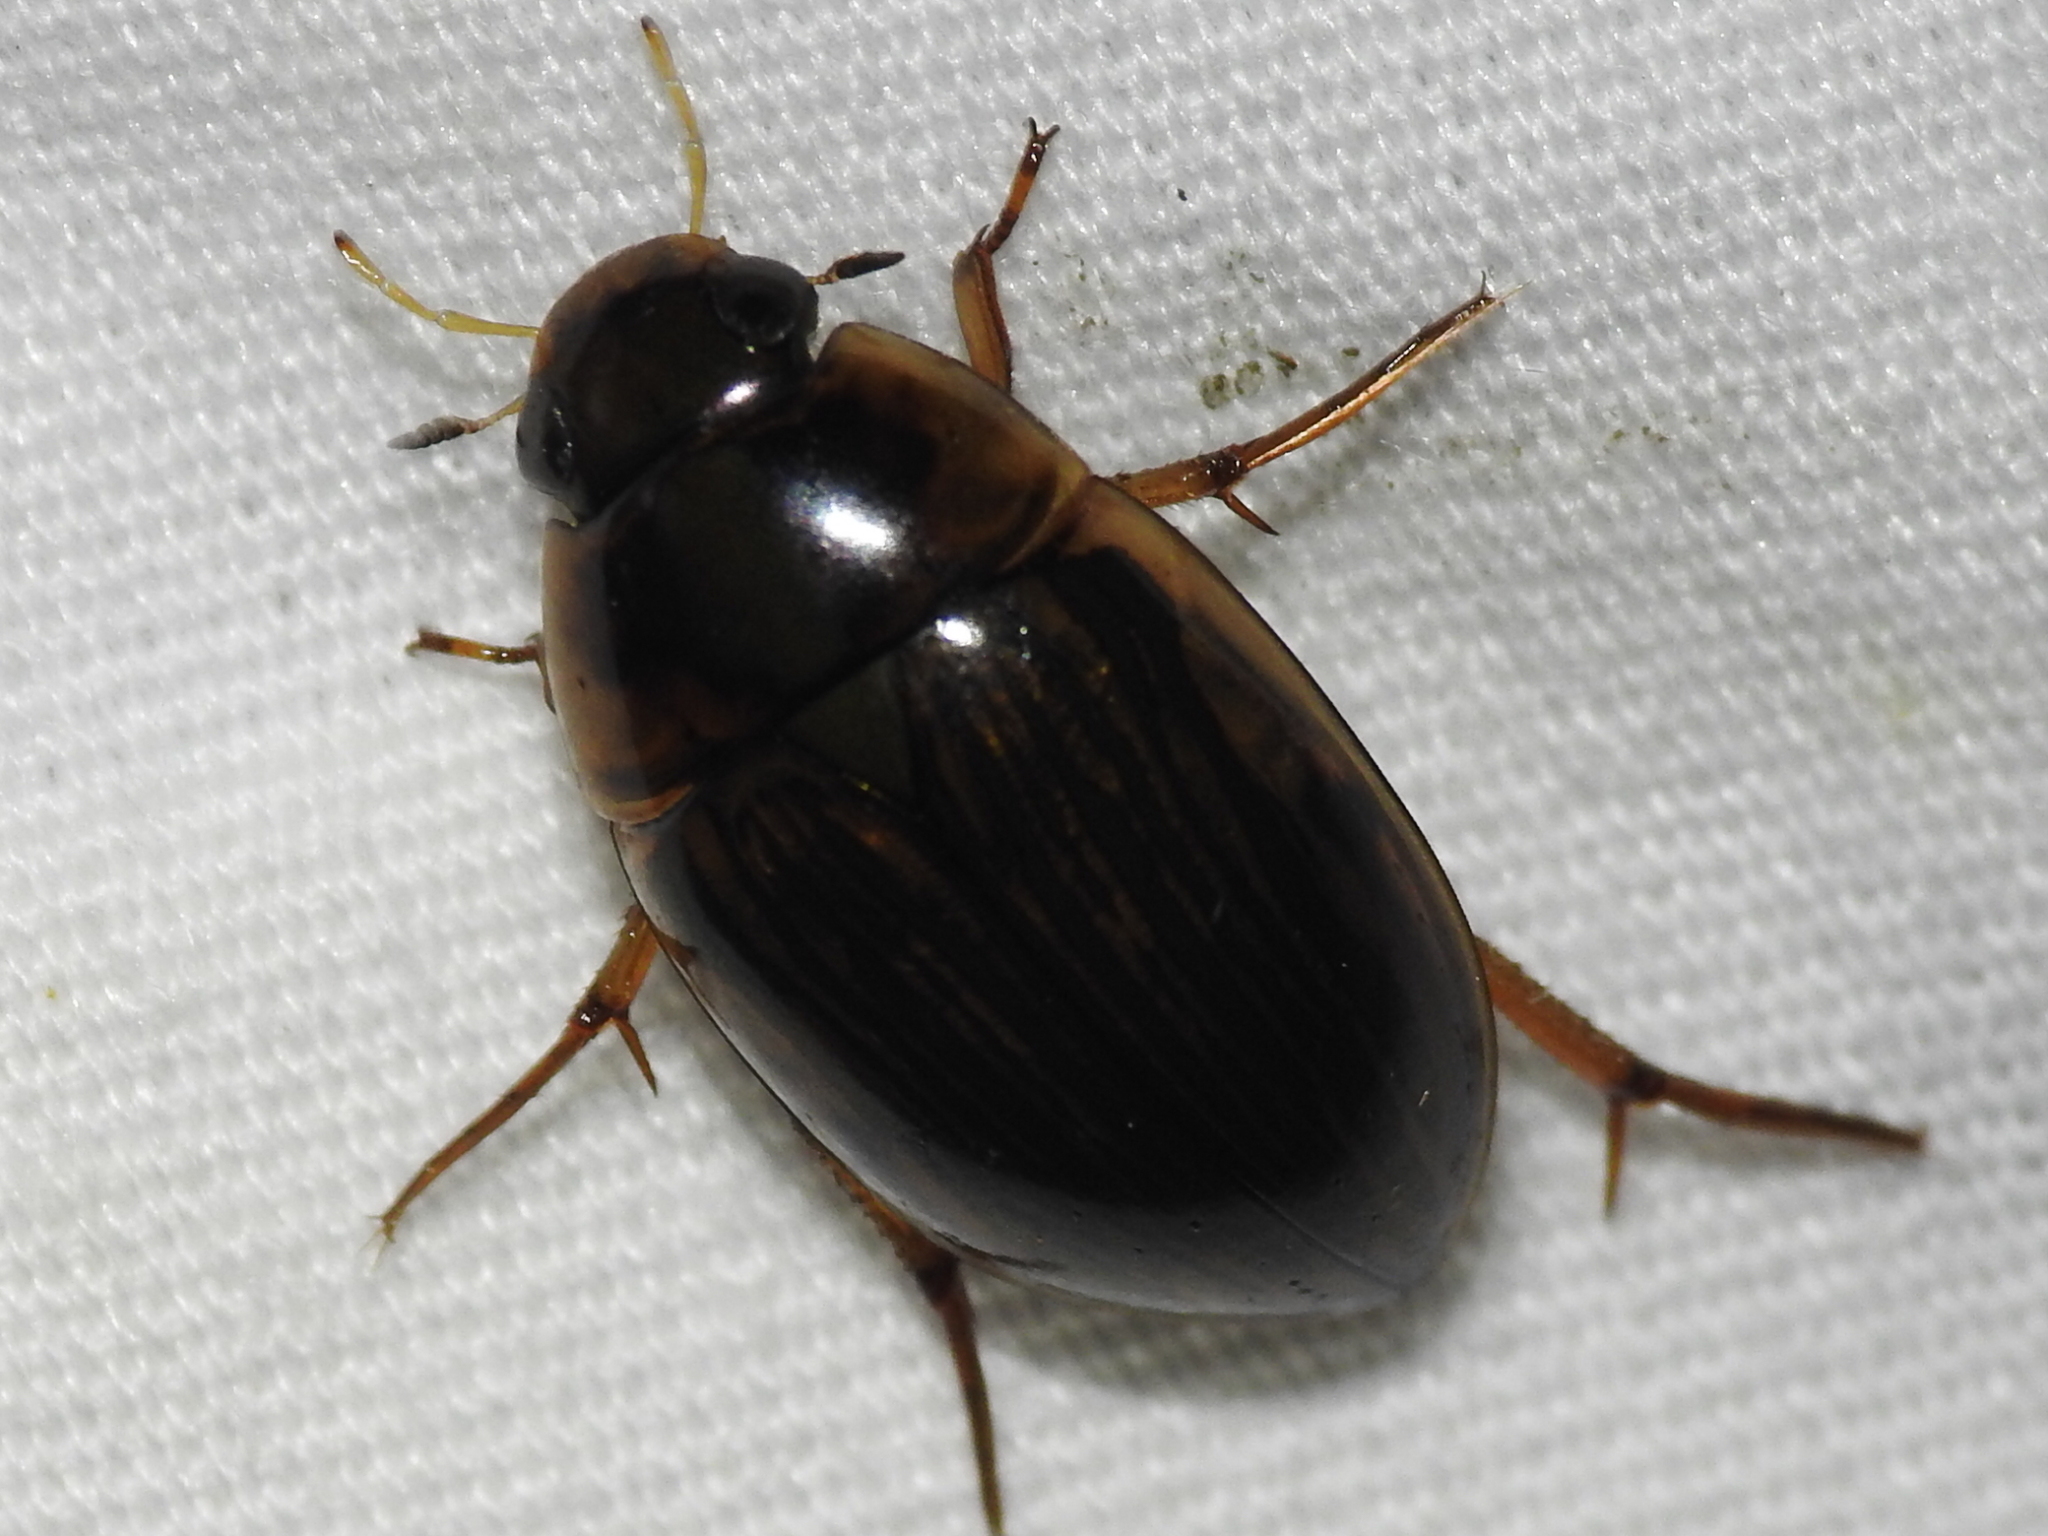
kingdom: Animalia
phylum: Arthropoda
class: Insecta
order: Coleoptera
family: Hydrophilidae
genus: Tropisternus
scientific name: Tropisternus collaris
